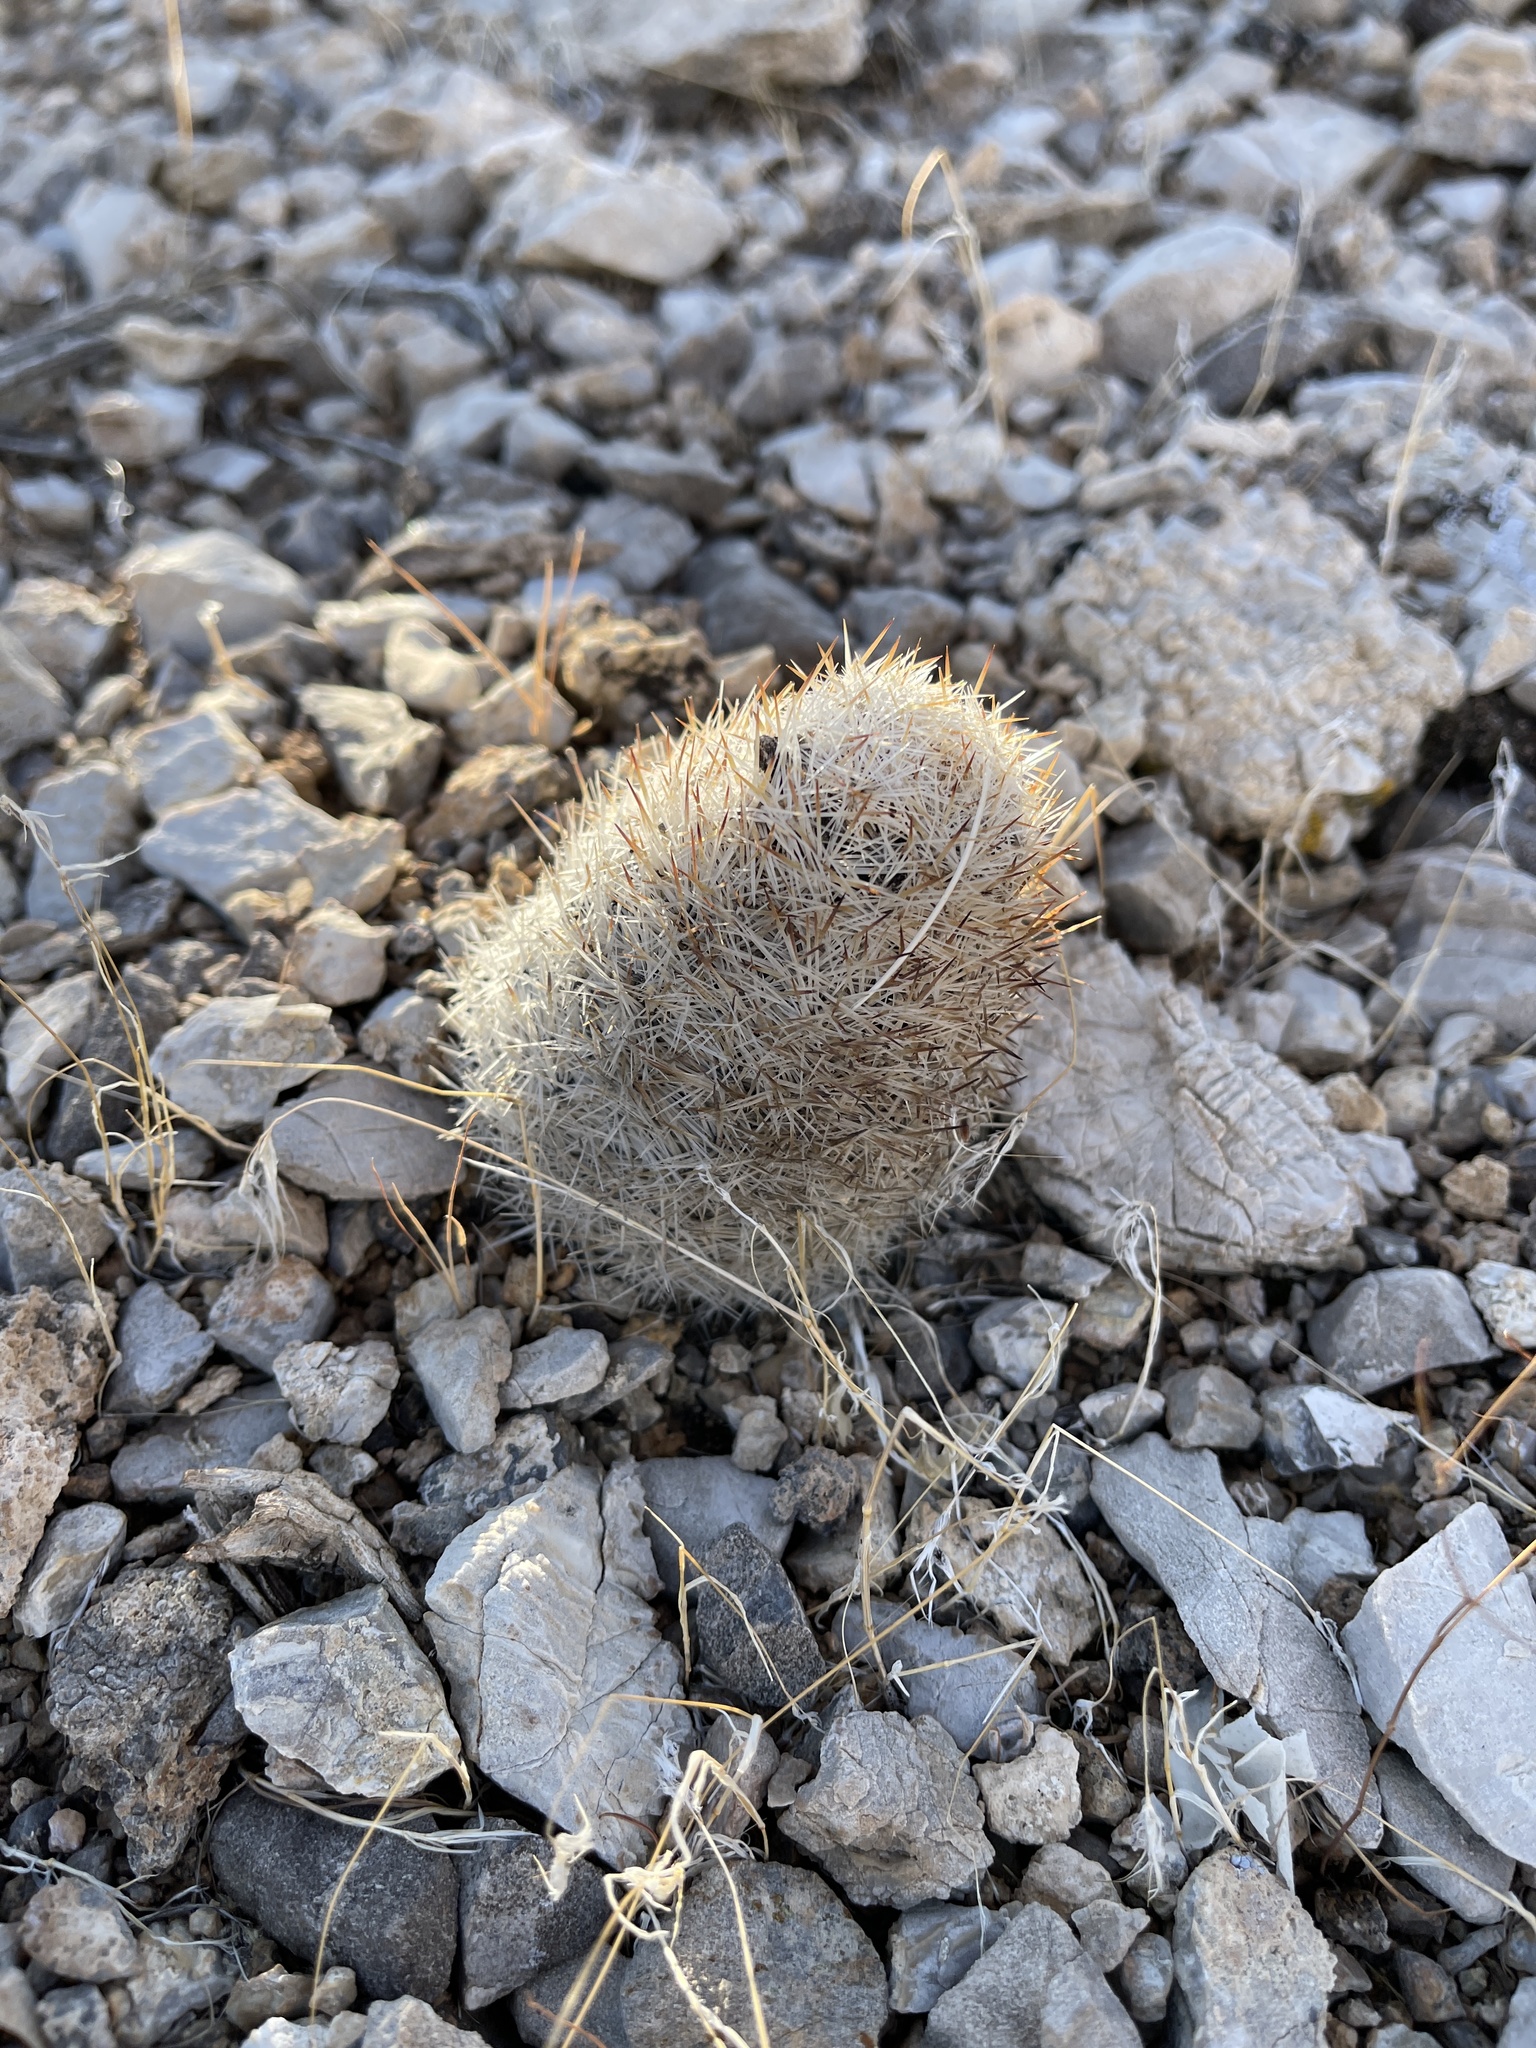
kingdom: Plantae
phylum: Tracheophyta
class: Magnoliopsida
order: Caryophyllales
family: Cactaceae
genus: Pelecyphora
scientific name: Pelecyphora dasyacantha
